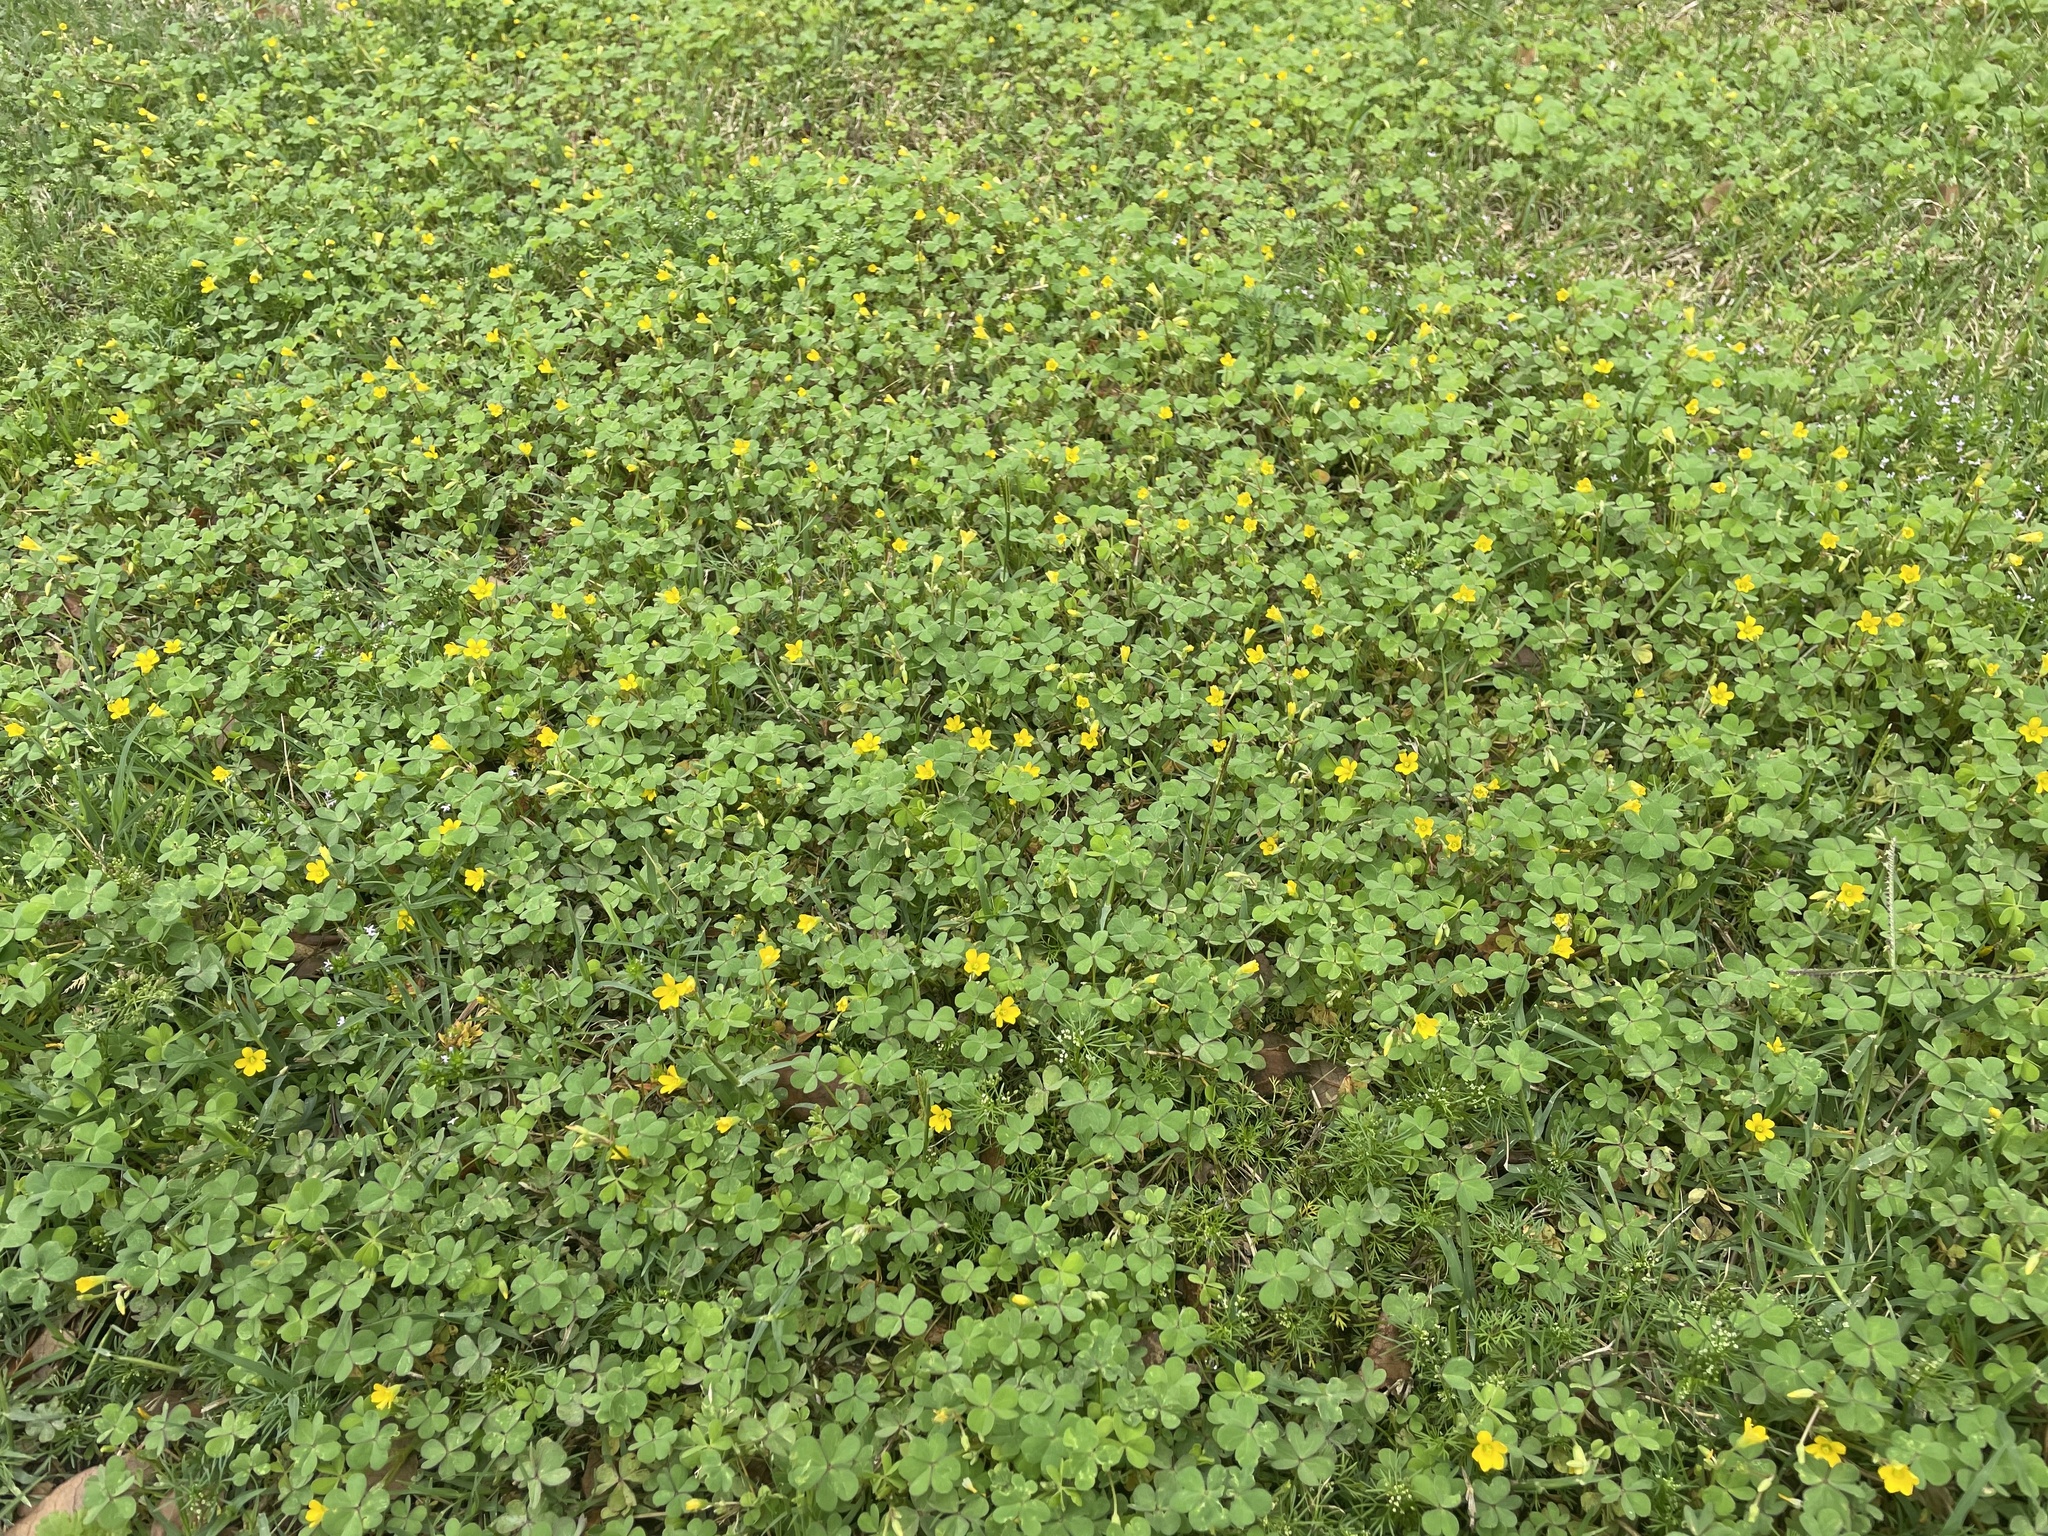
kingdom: Plantae
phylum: Tracheophyta
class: Magnoliopsida
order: Oxalidales
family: Oxalidaceae
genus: Oxalis
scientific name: Oxalis corniculata
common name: Procumbent yellow-sorrel
